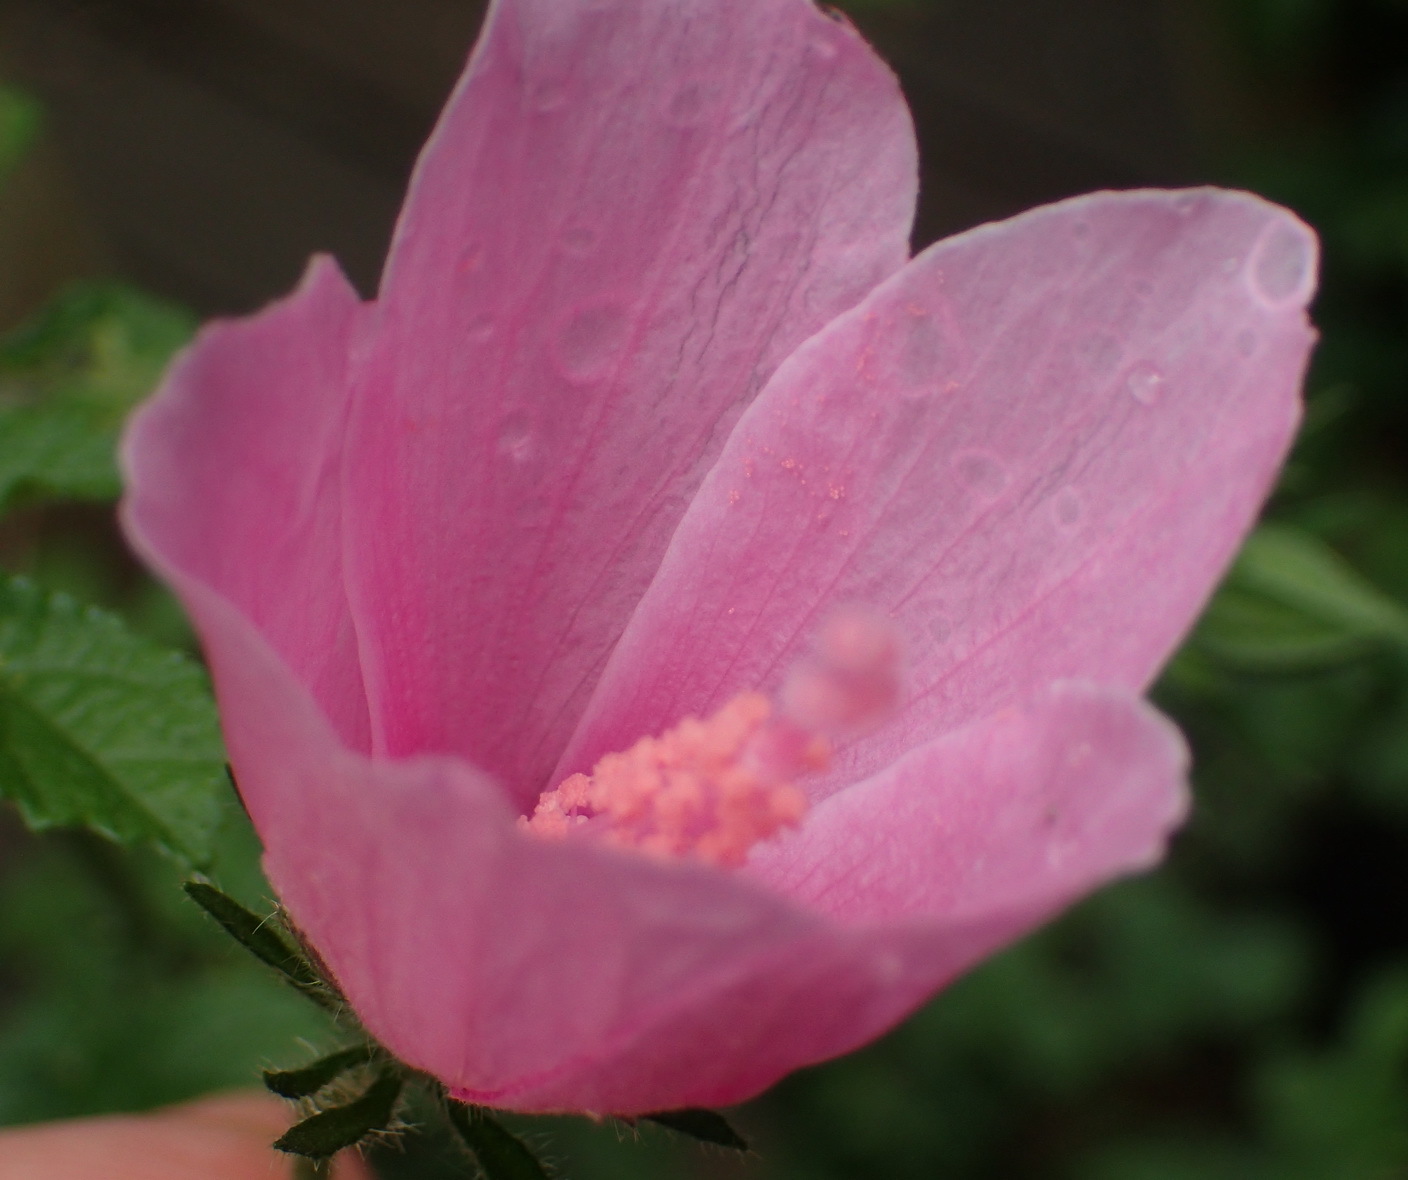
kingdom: Plantae
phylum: Tracheophyta
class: Magnoliopsida
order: Malvales
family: Malvaceae
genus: Hibiscus
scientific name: Hibiscus pedunculatus
